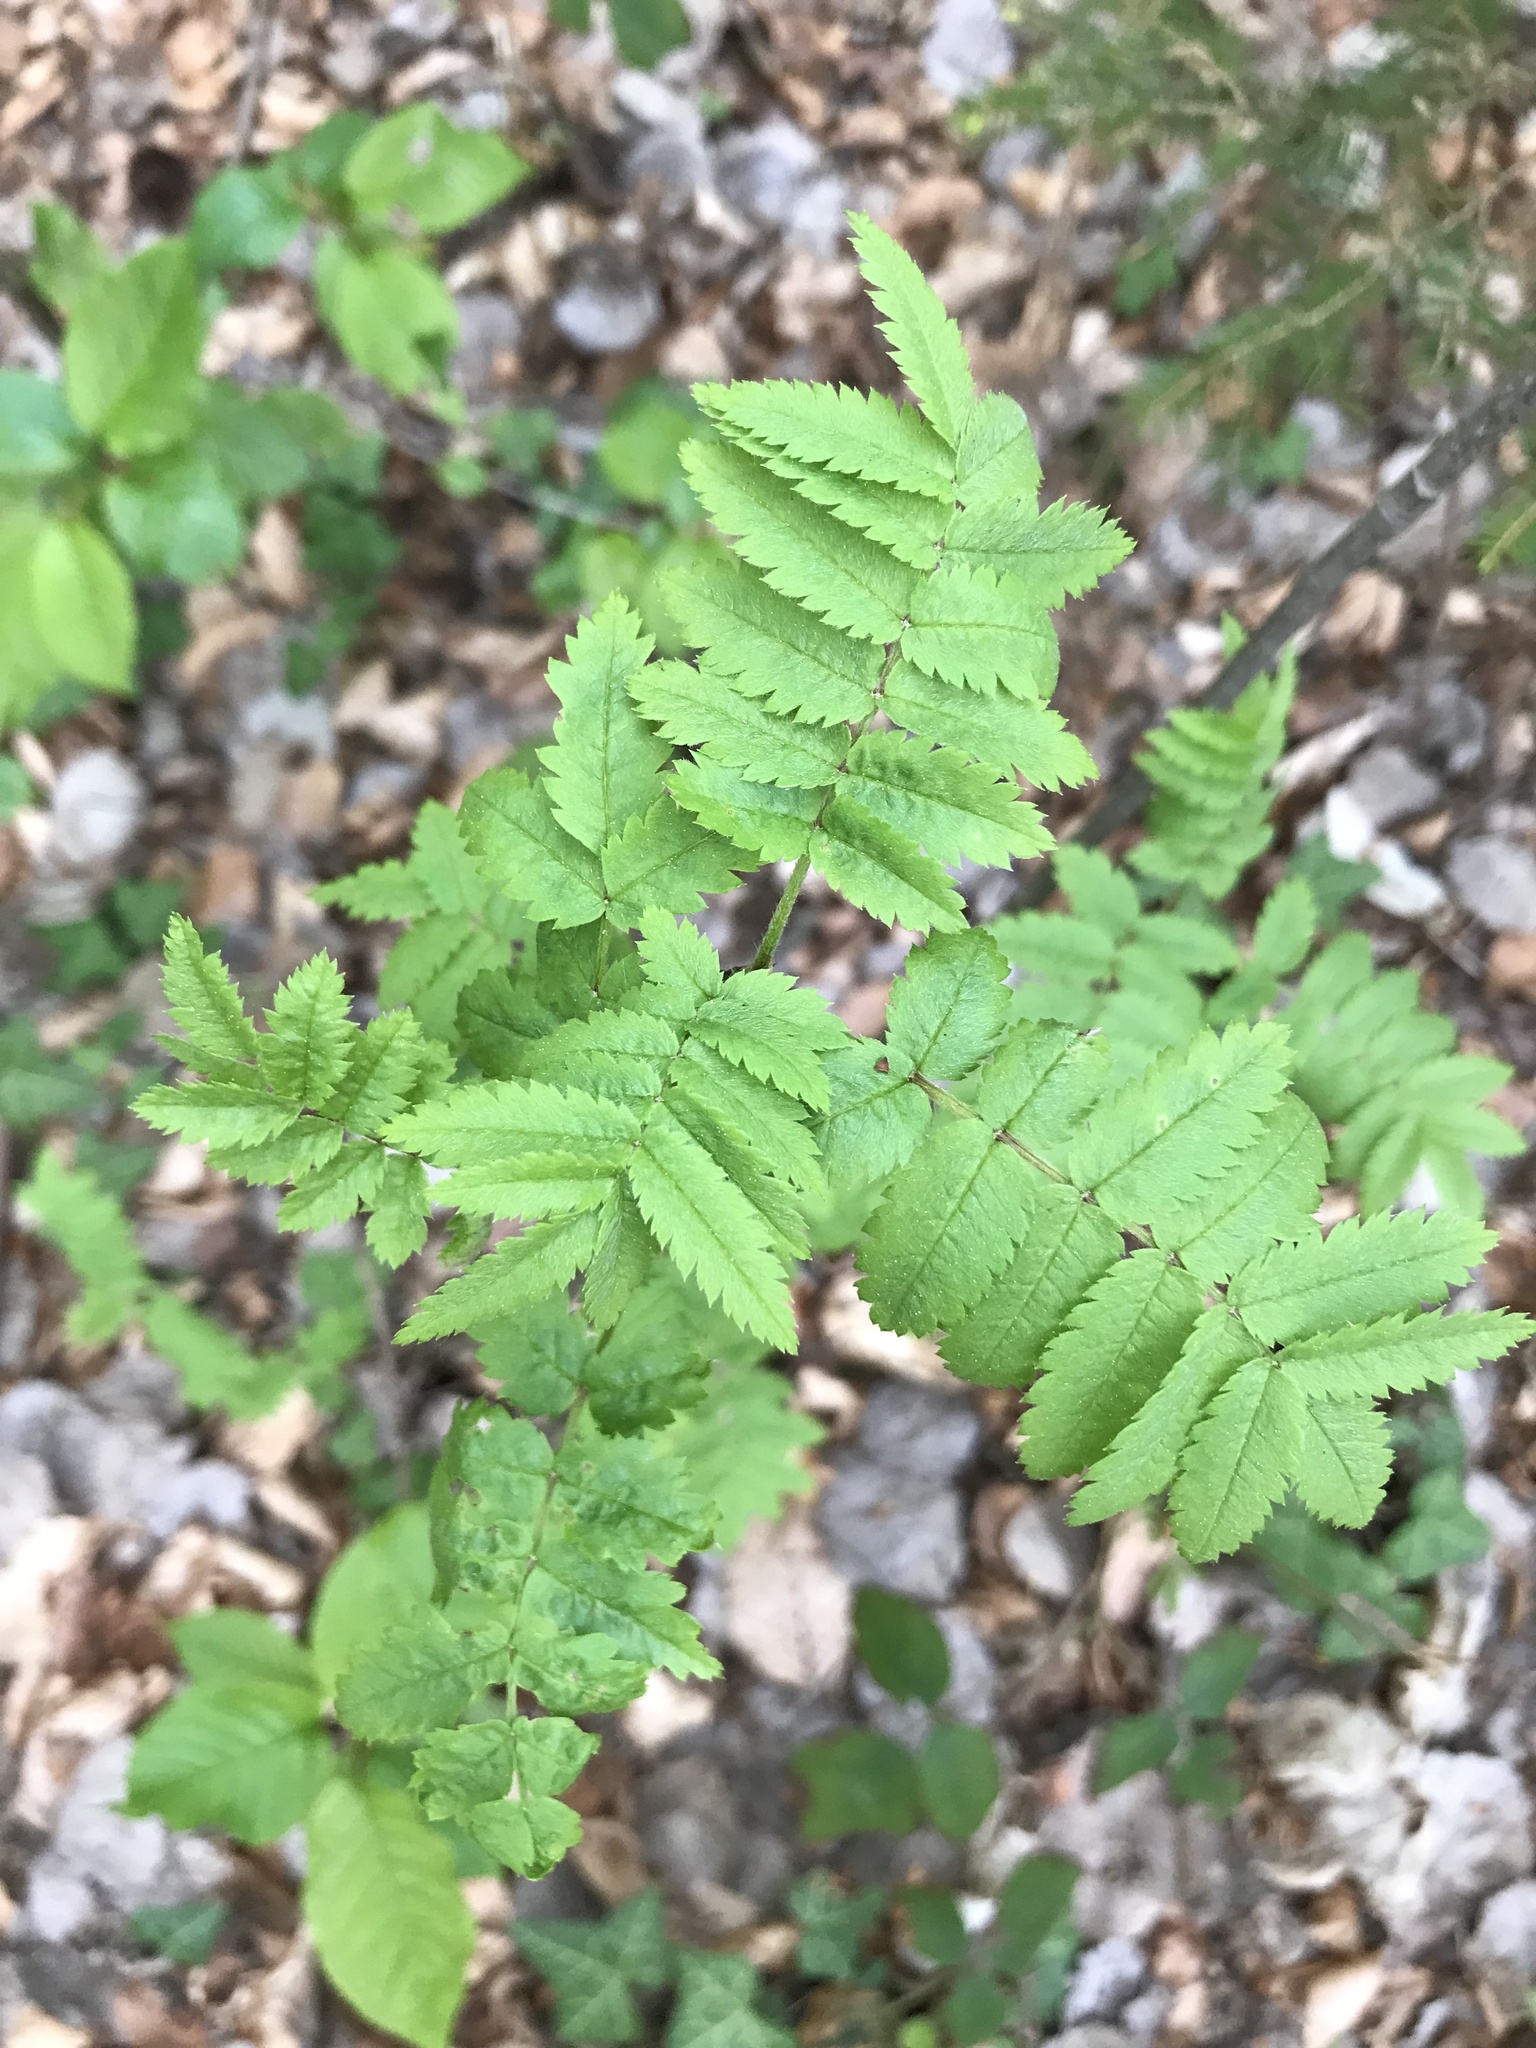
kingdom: Plantae
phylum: Tracheophyta
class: Magnoliopsida
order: Rosales
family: Rosaceae
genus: Sorbus
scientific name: Sorbus aucuparia
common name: Rowan
